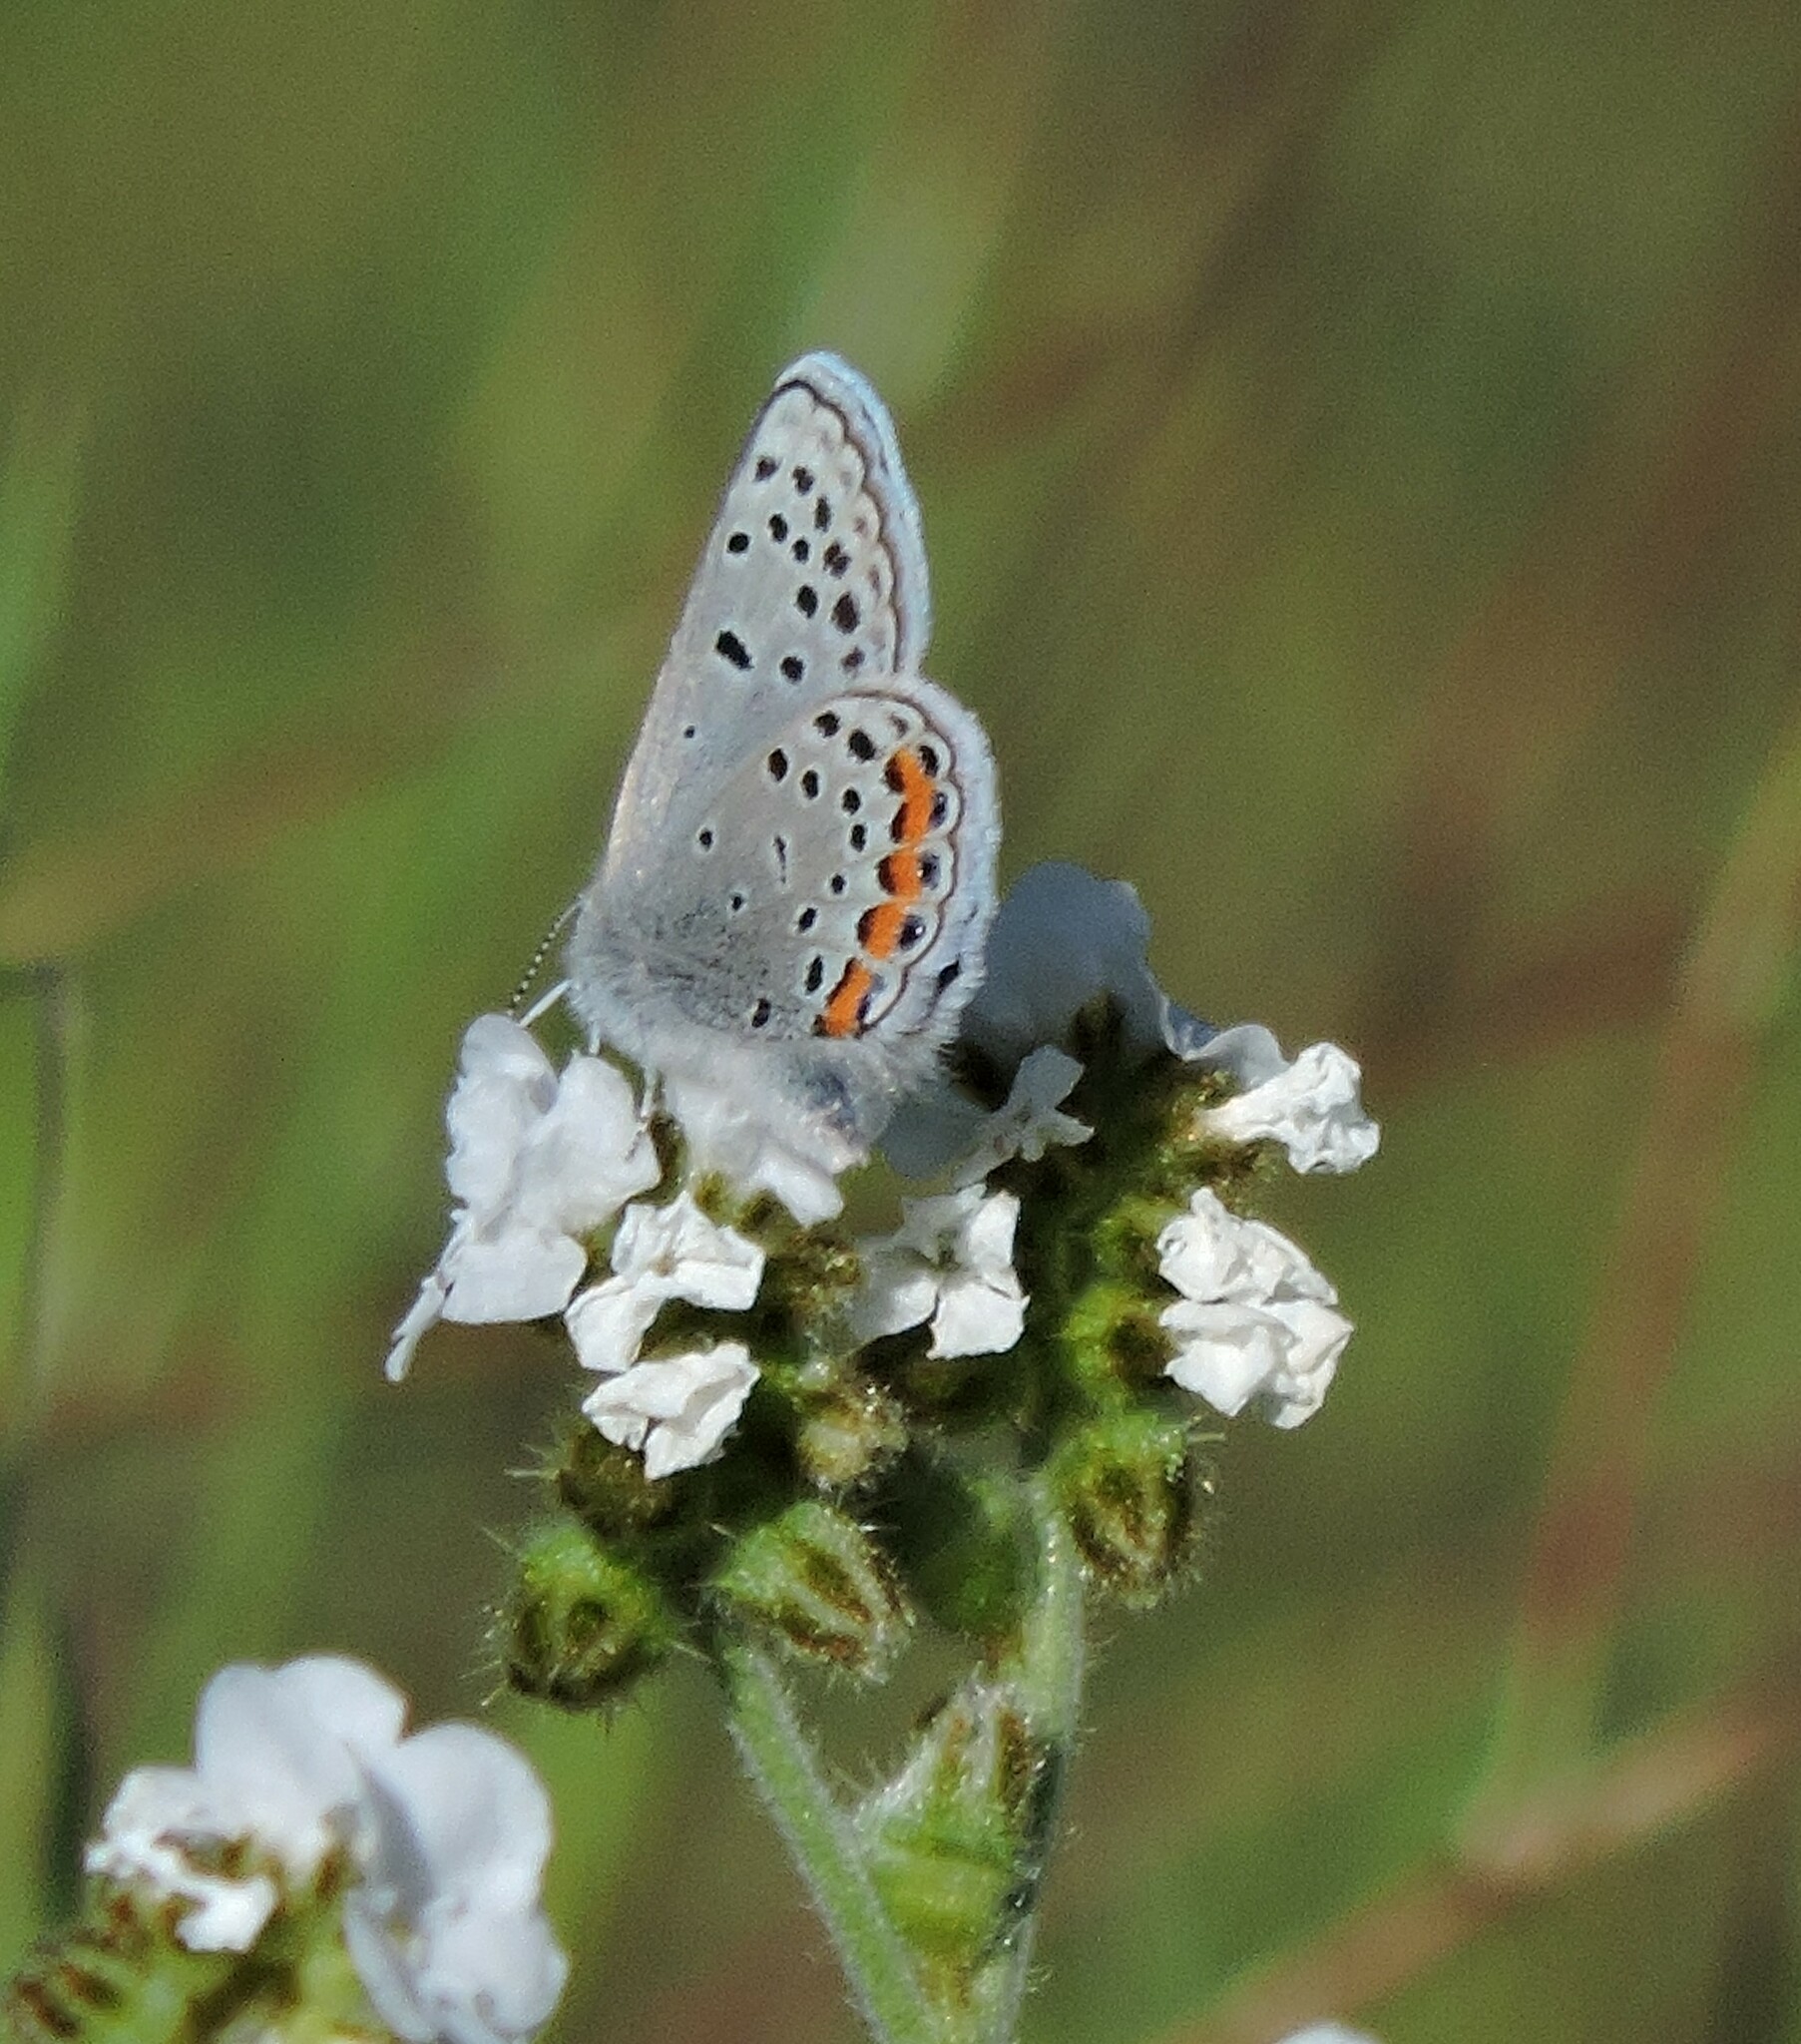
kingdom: Animalia
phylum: Arthropoda
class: Insecta
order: Lepidoptera
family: Lycaenidae
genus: Icaricia
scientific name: Icaricia acmon
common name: Acmon blue
